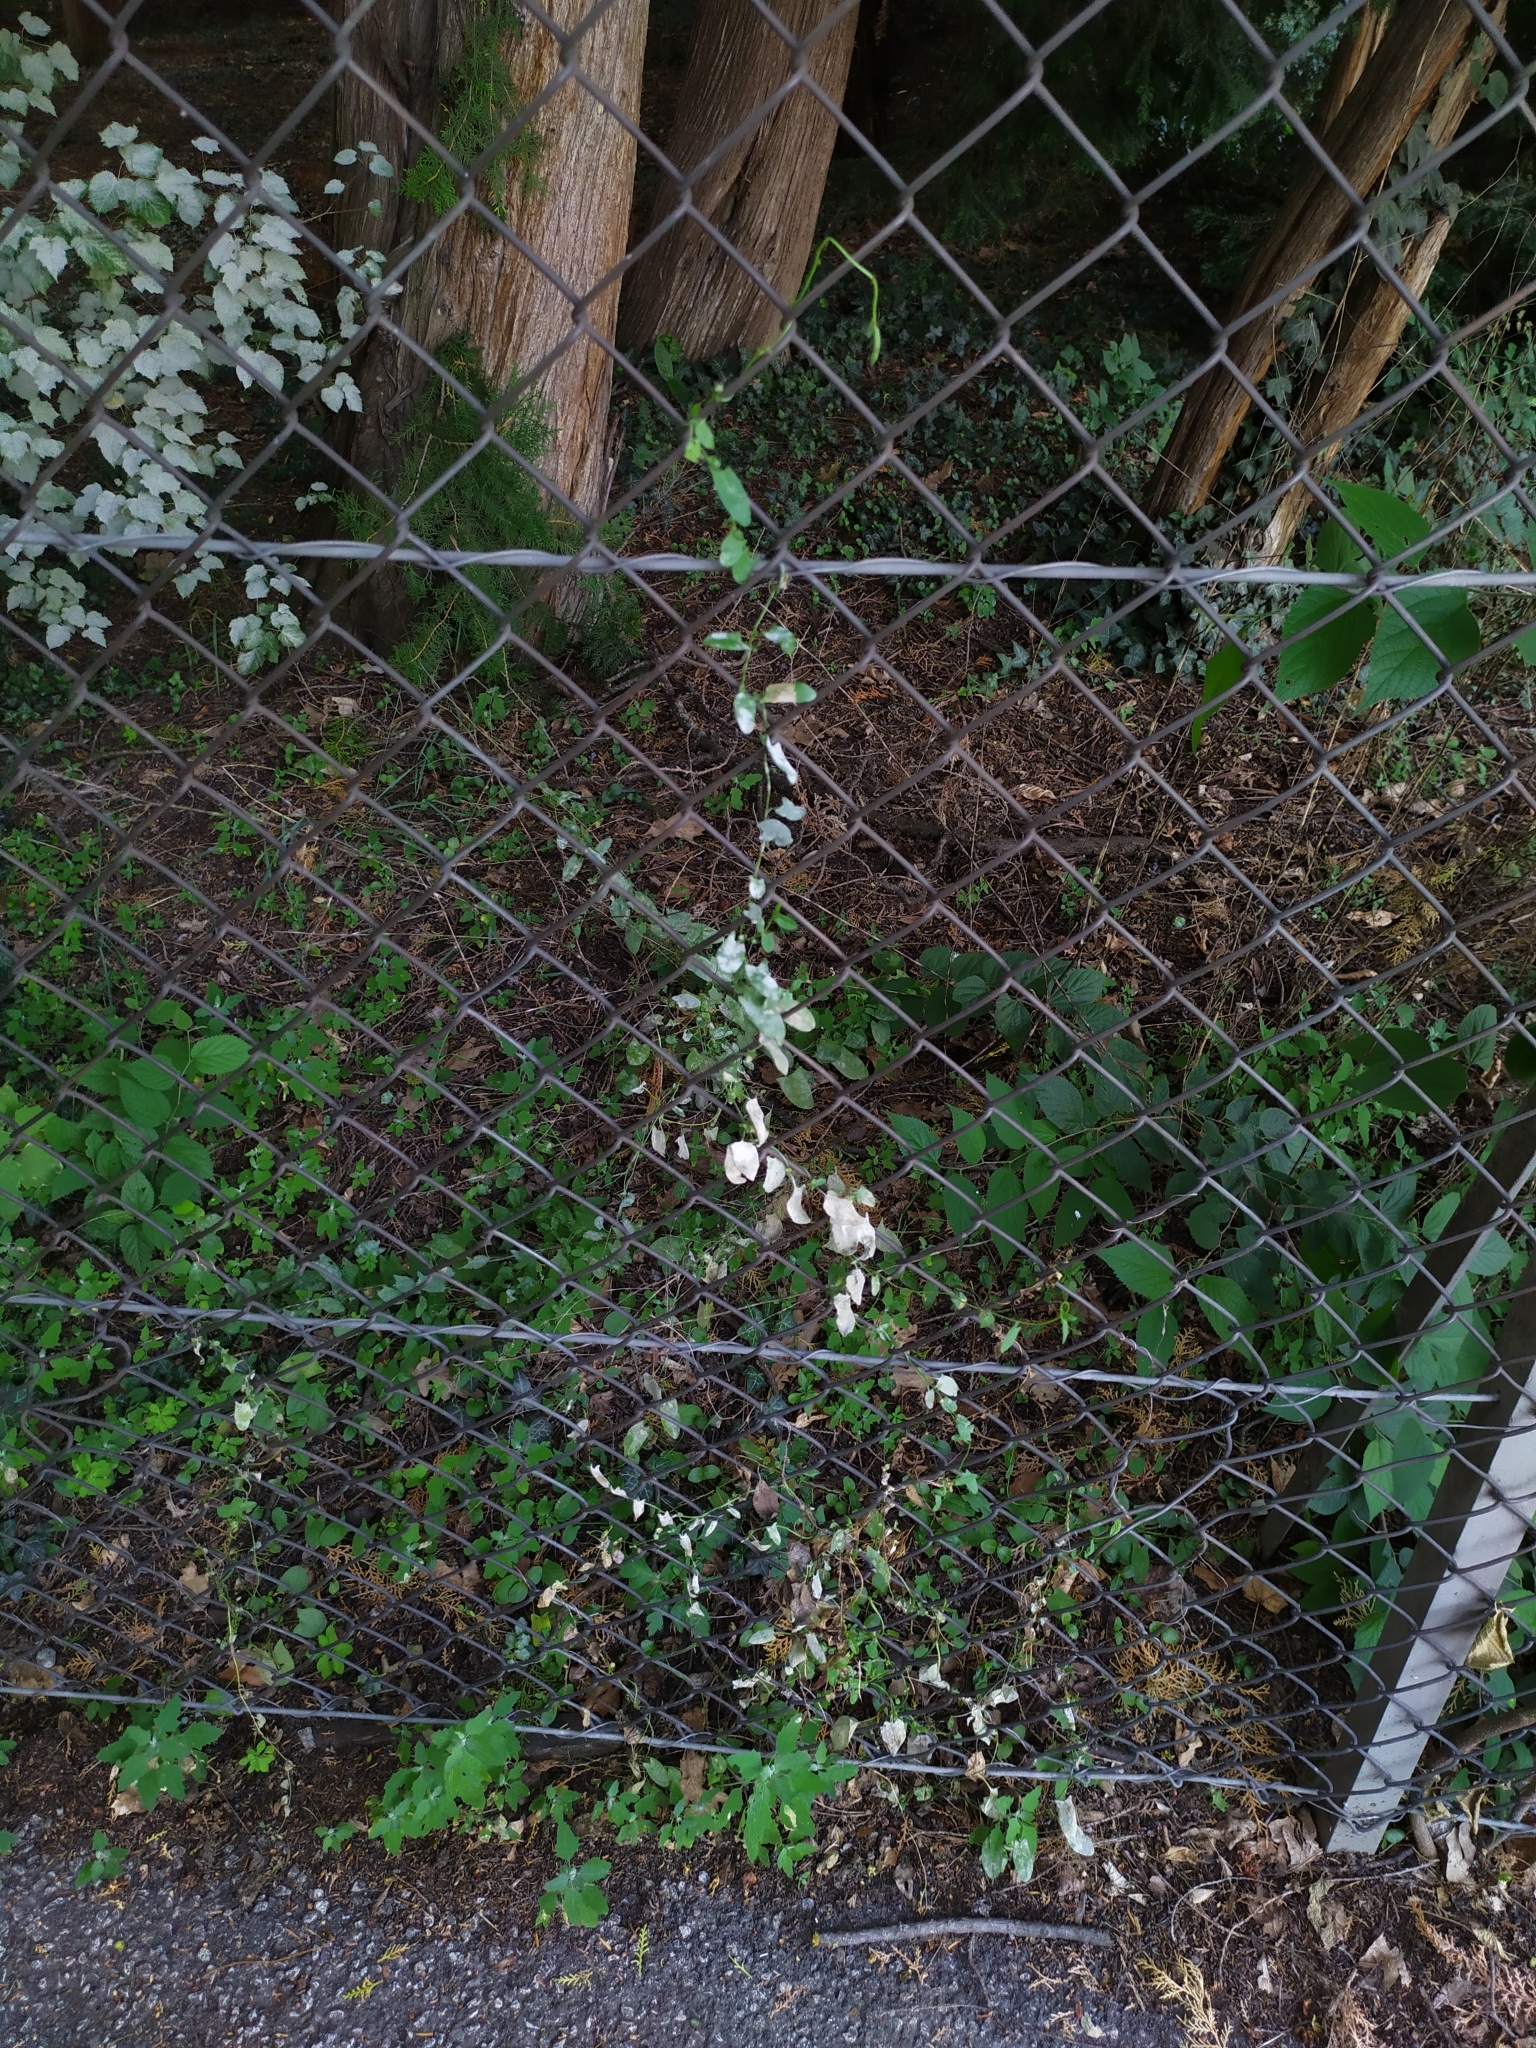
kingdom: Fungi
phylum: Ascomycota
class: Leotiomycetes
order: Helotiales
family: Erysiphaceae
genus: Erysiphe
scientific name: Erysiphe convolvuli
